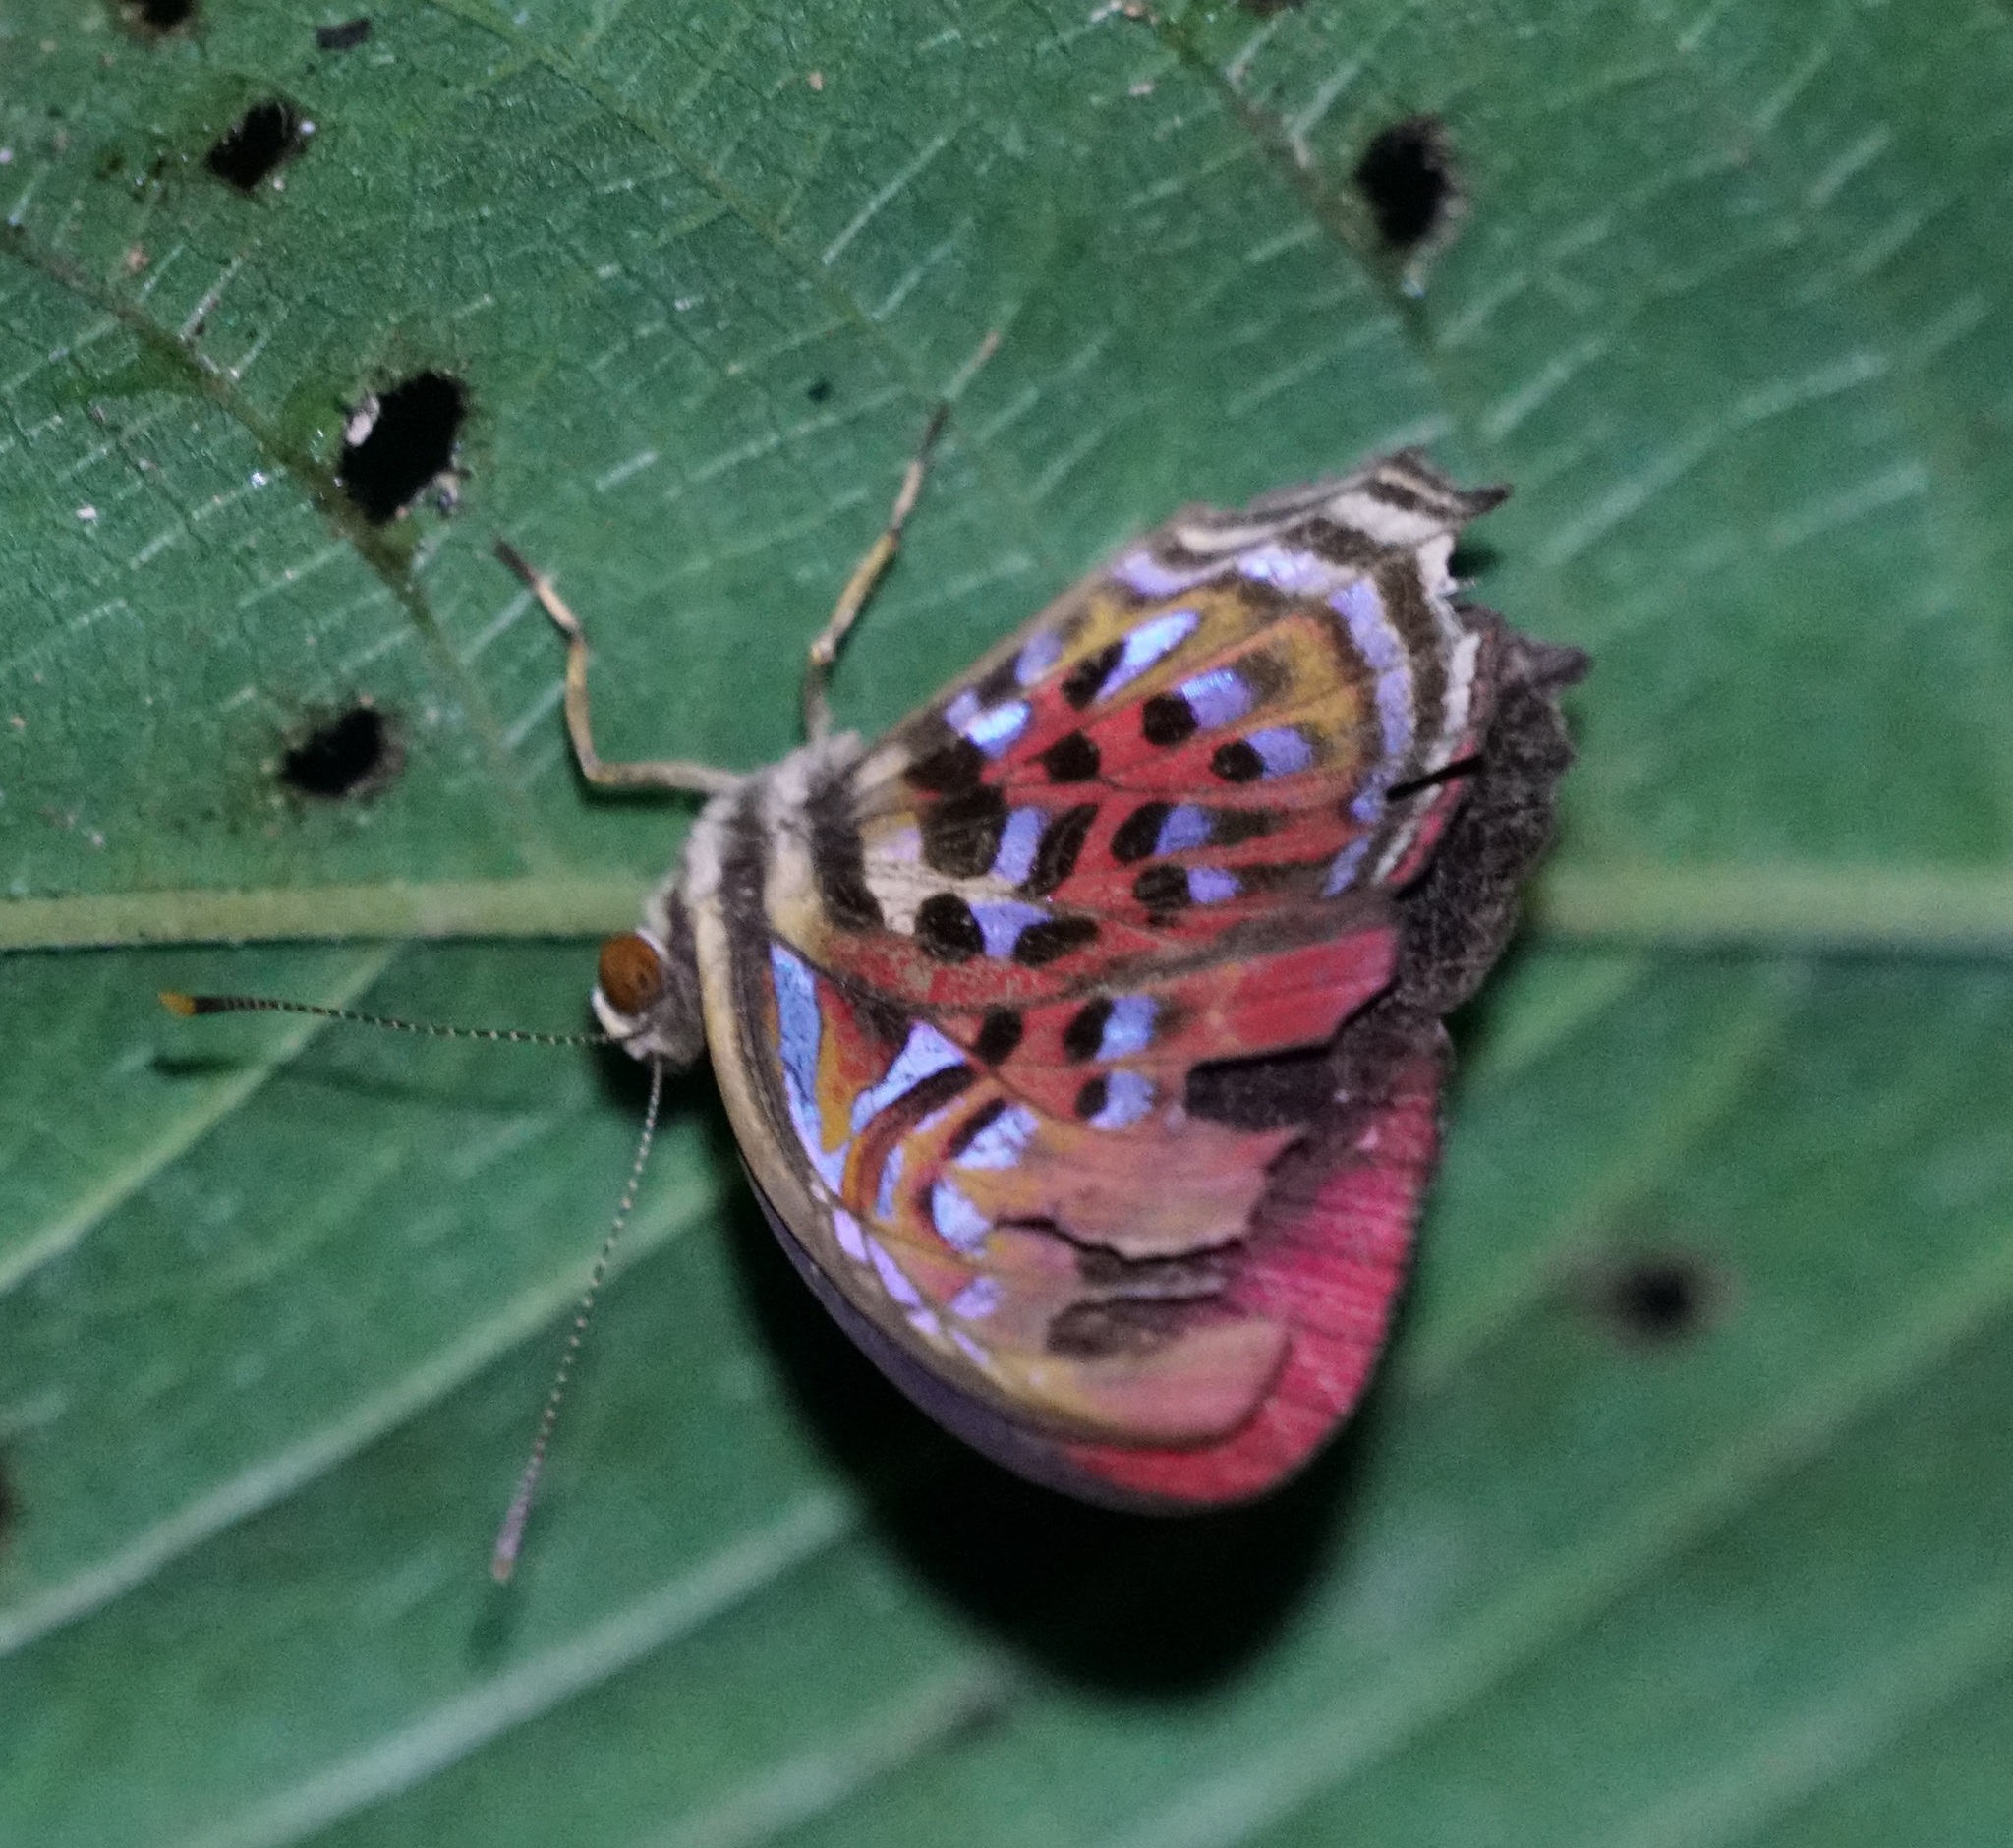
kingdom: Animalia
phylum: Arthropoda
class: Insecta
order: Lepidoptera
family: Riodinidae
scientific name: Riodinidae
